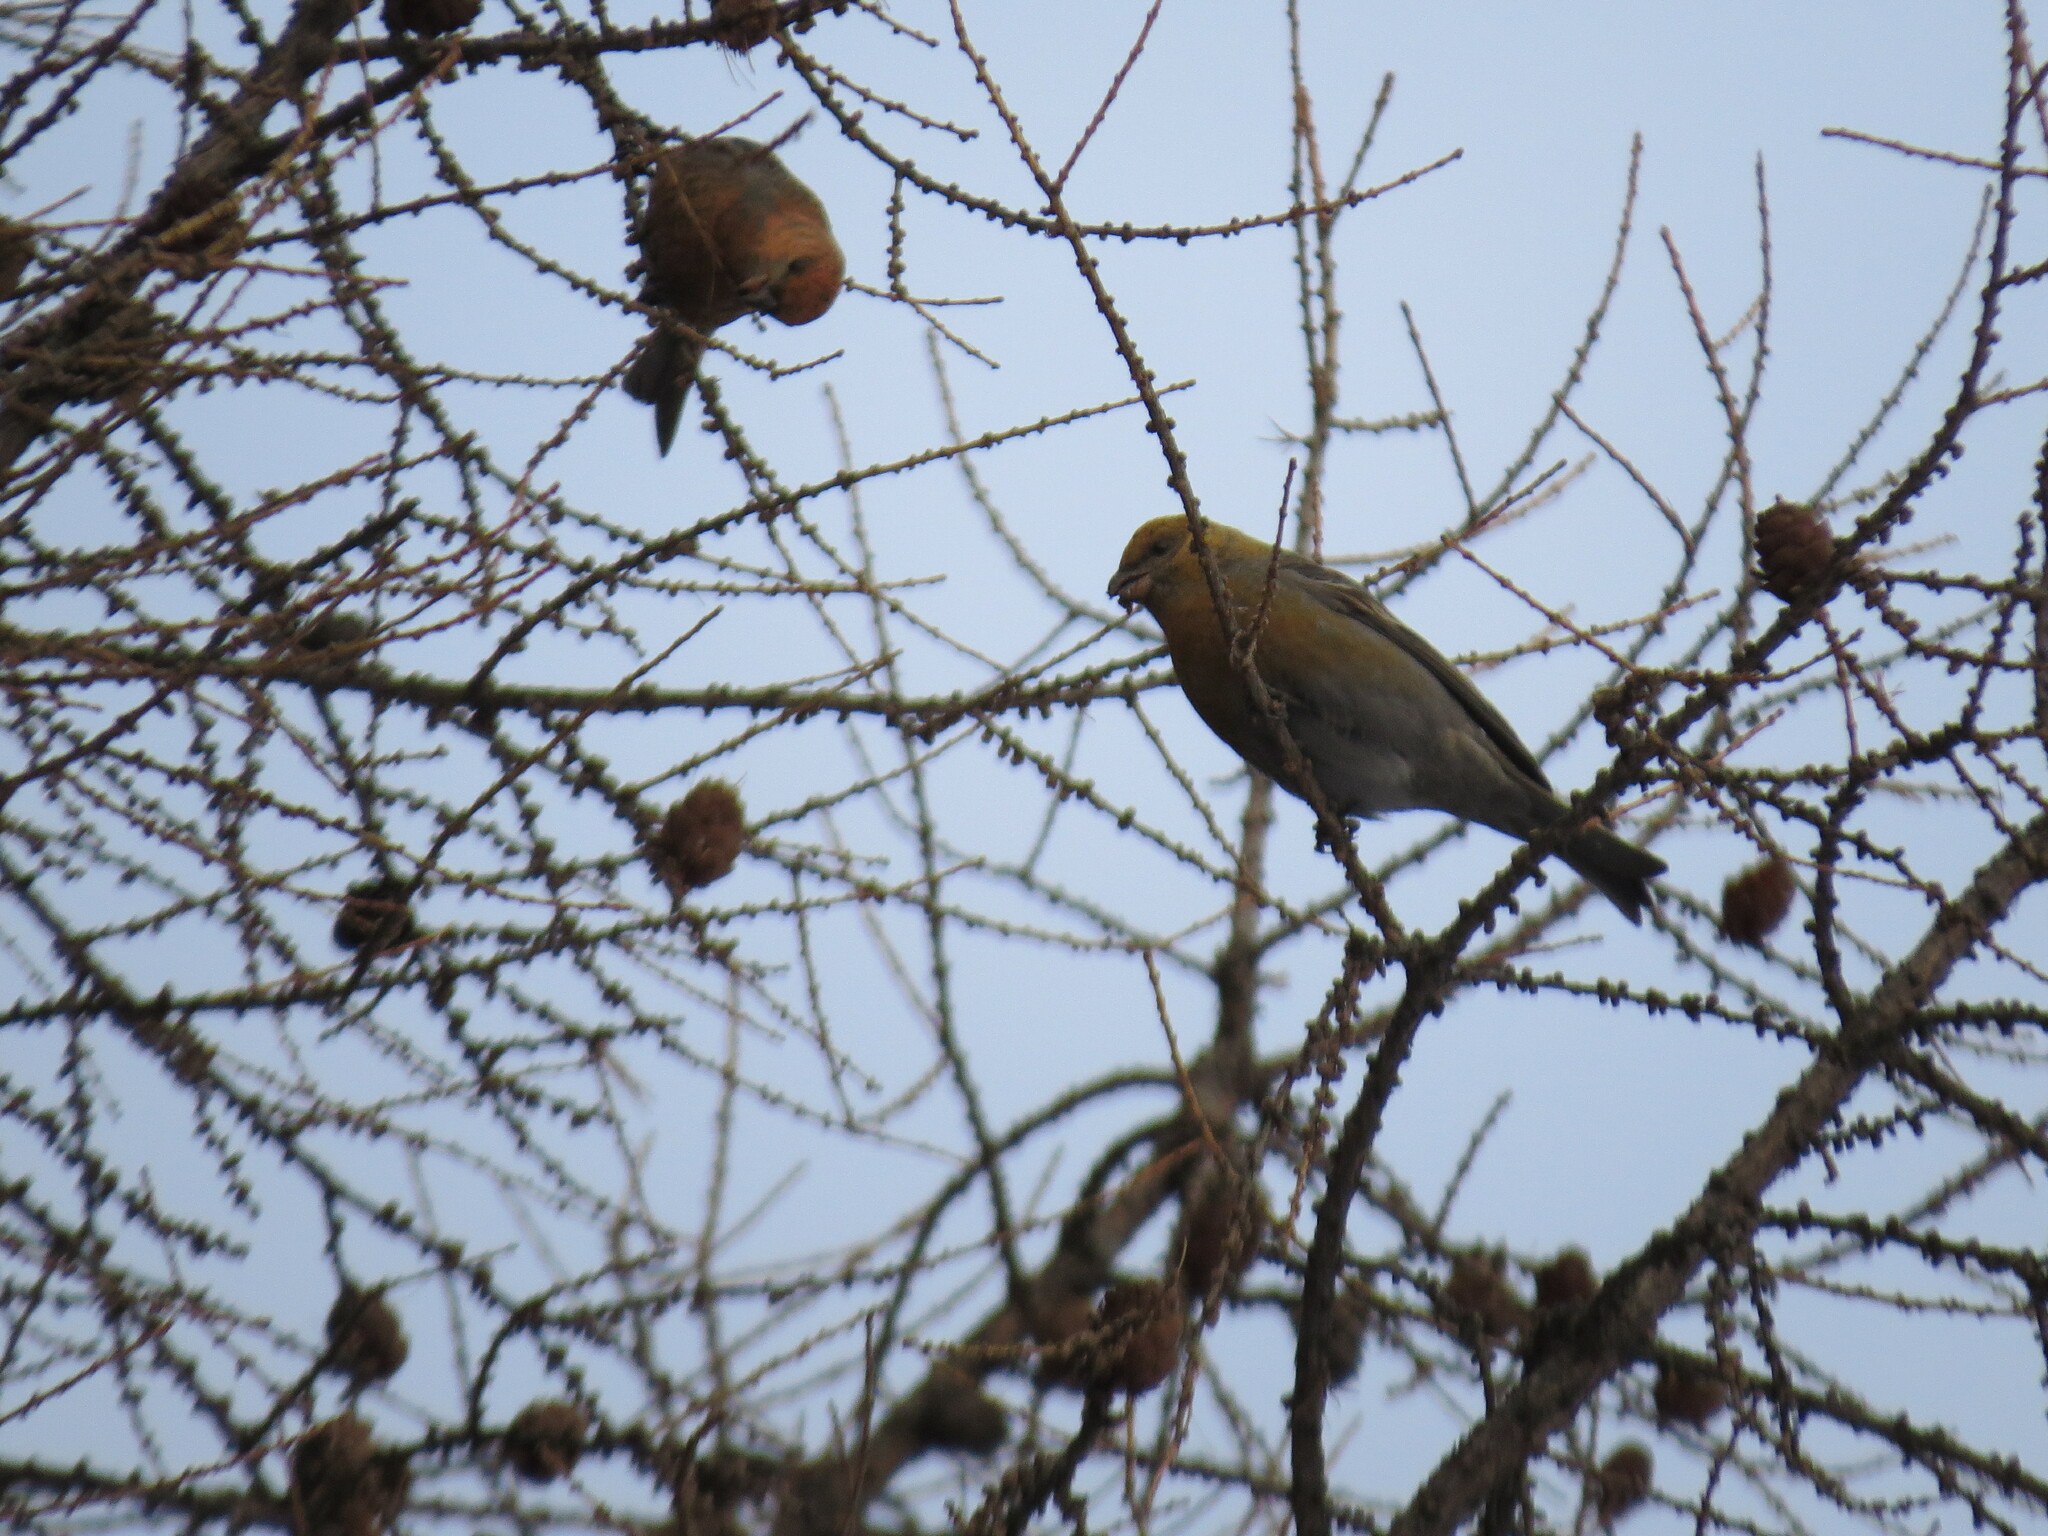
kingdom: Animalia
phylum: Chordata
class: Aves
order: Passeriformes
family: Fringillidae
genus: Pinicola
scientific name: Pinicola enucleator
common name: Pine grosbeak
